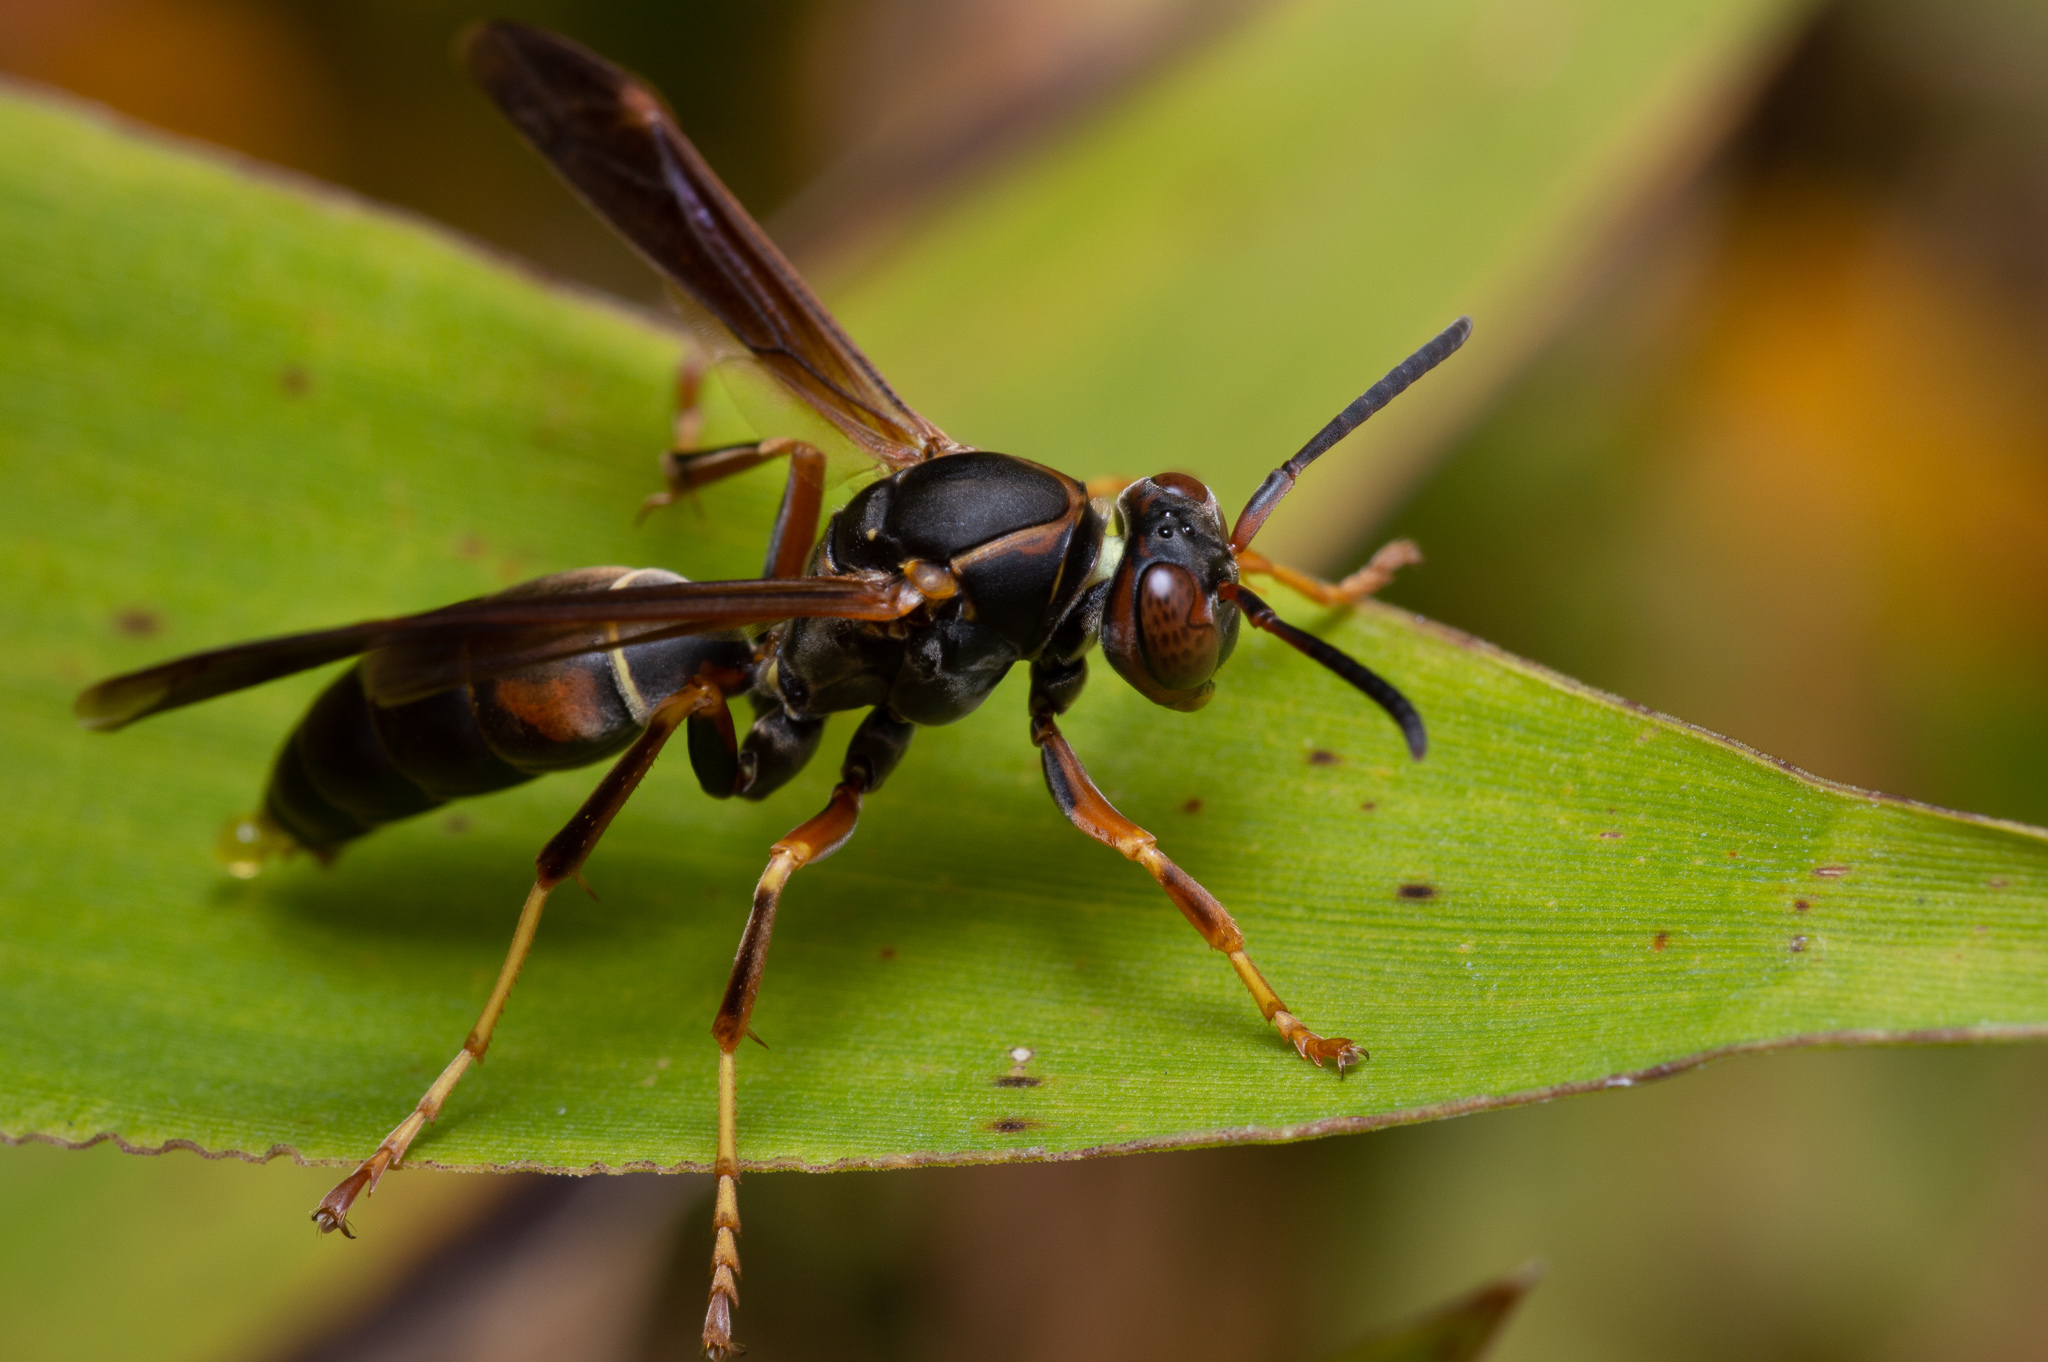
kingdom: Animalia
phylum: Arthropoda
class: Insecta
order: Hymenoptera
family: Eumenidae
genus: Polistes
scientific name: Polistes fuscatus
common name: Dark paper wasp
